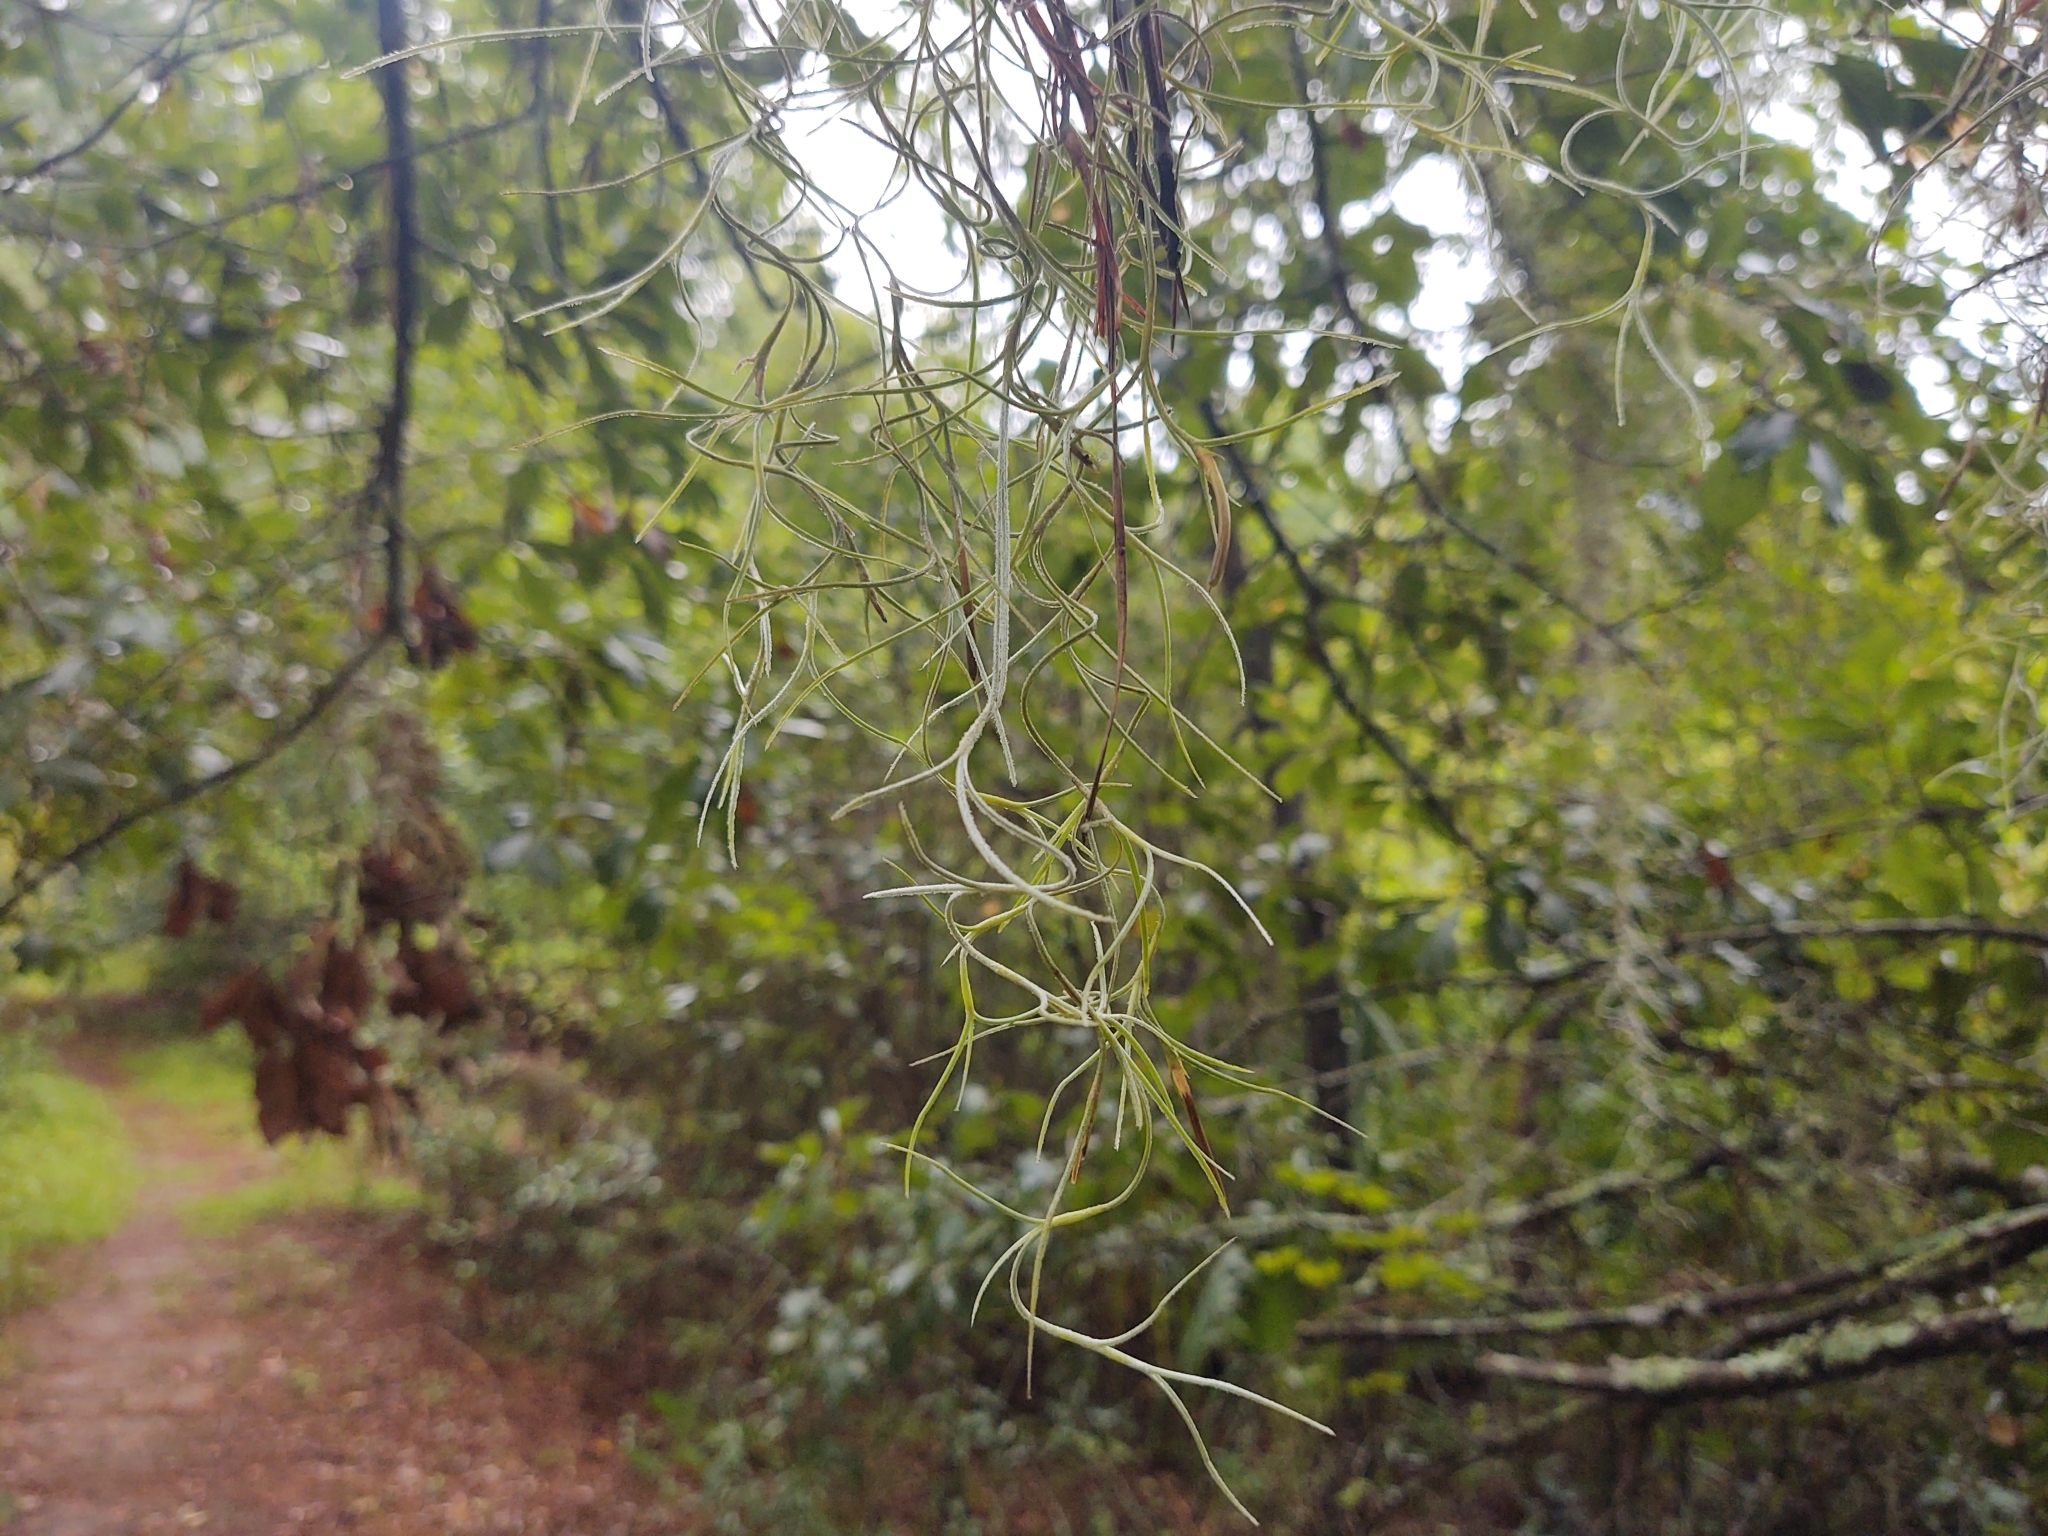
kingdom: Plantae
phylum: Tracheophyta
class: Liliopsida
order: Poales
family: Bromeliaceae
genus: Tillandsia
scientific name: Tillandsia usneoides
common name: Spanish moss
